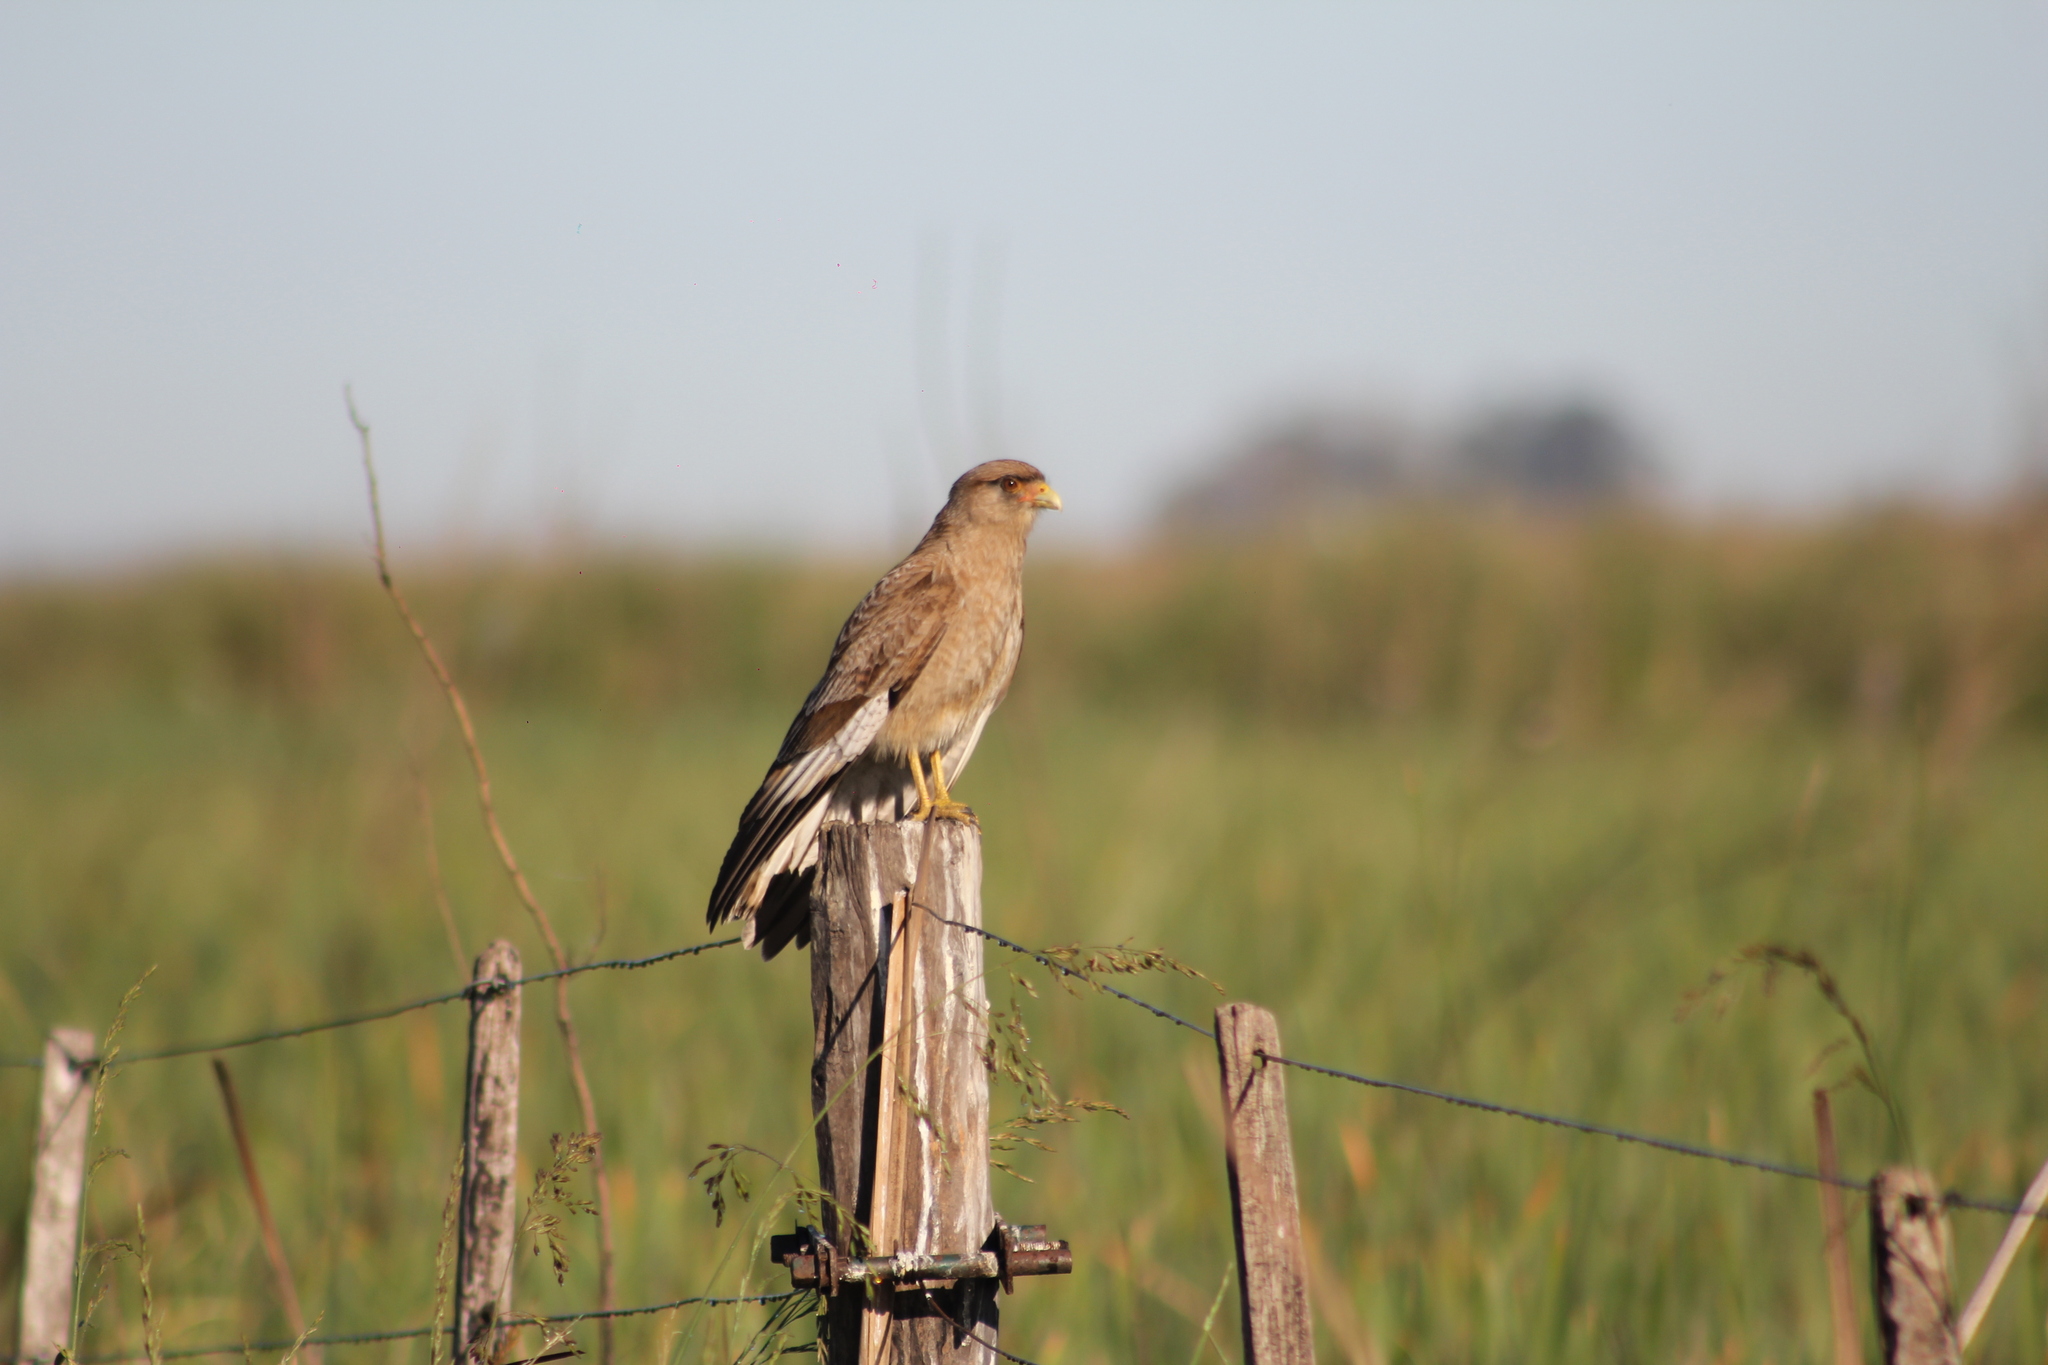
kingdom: Animalia
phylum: Chordata
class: Aves
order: Falconiformes
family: Falconidae
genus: Daptrius
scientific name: Daptrius
